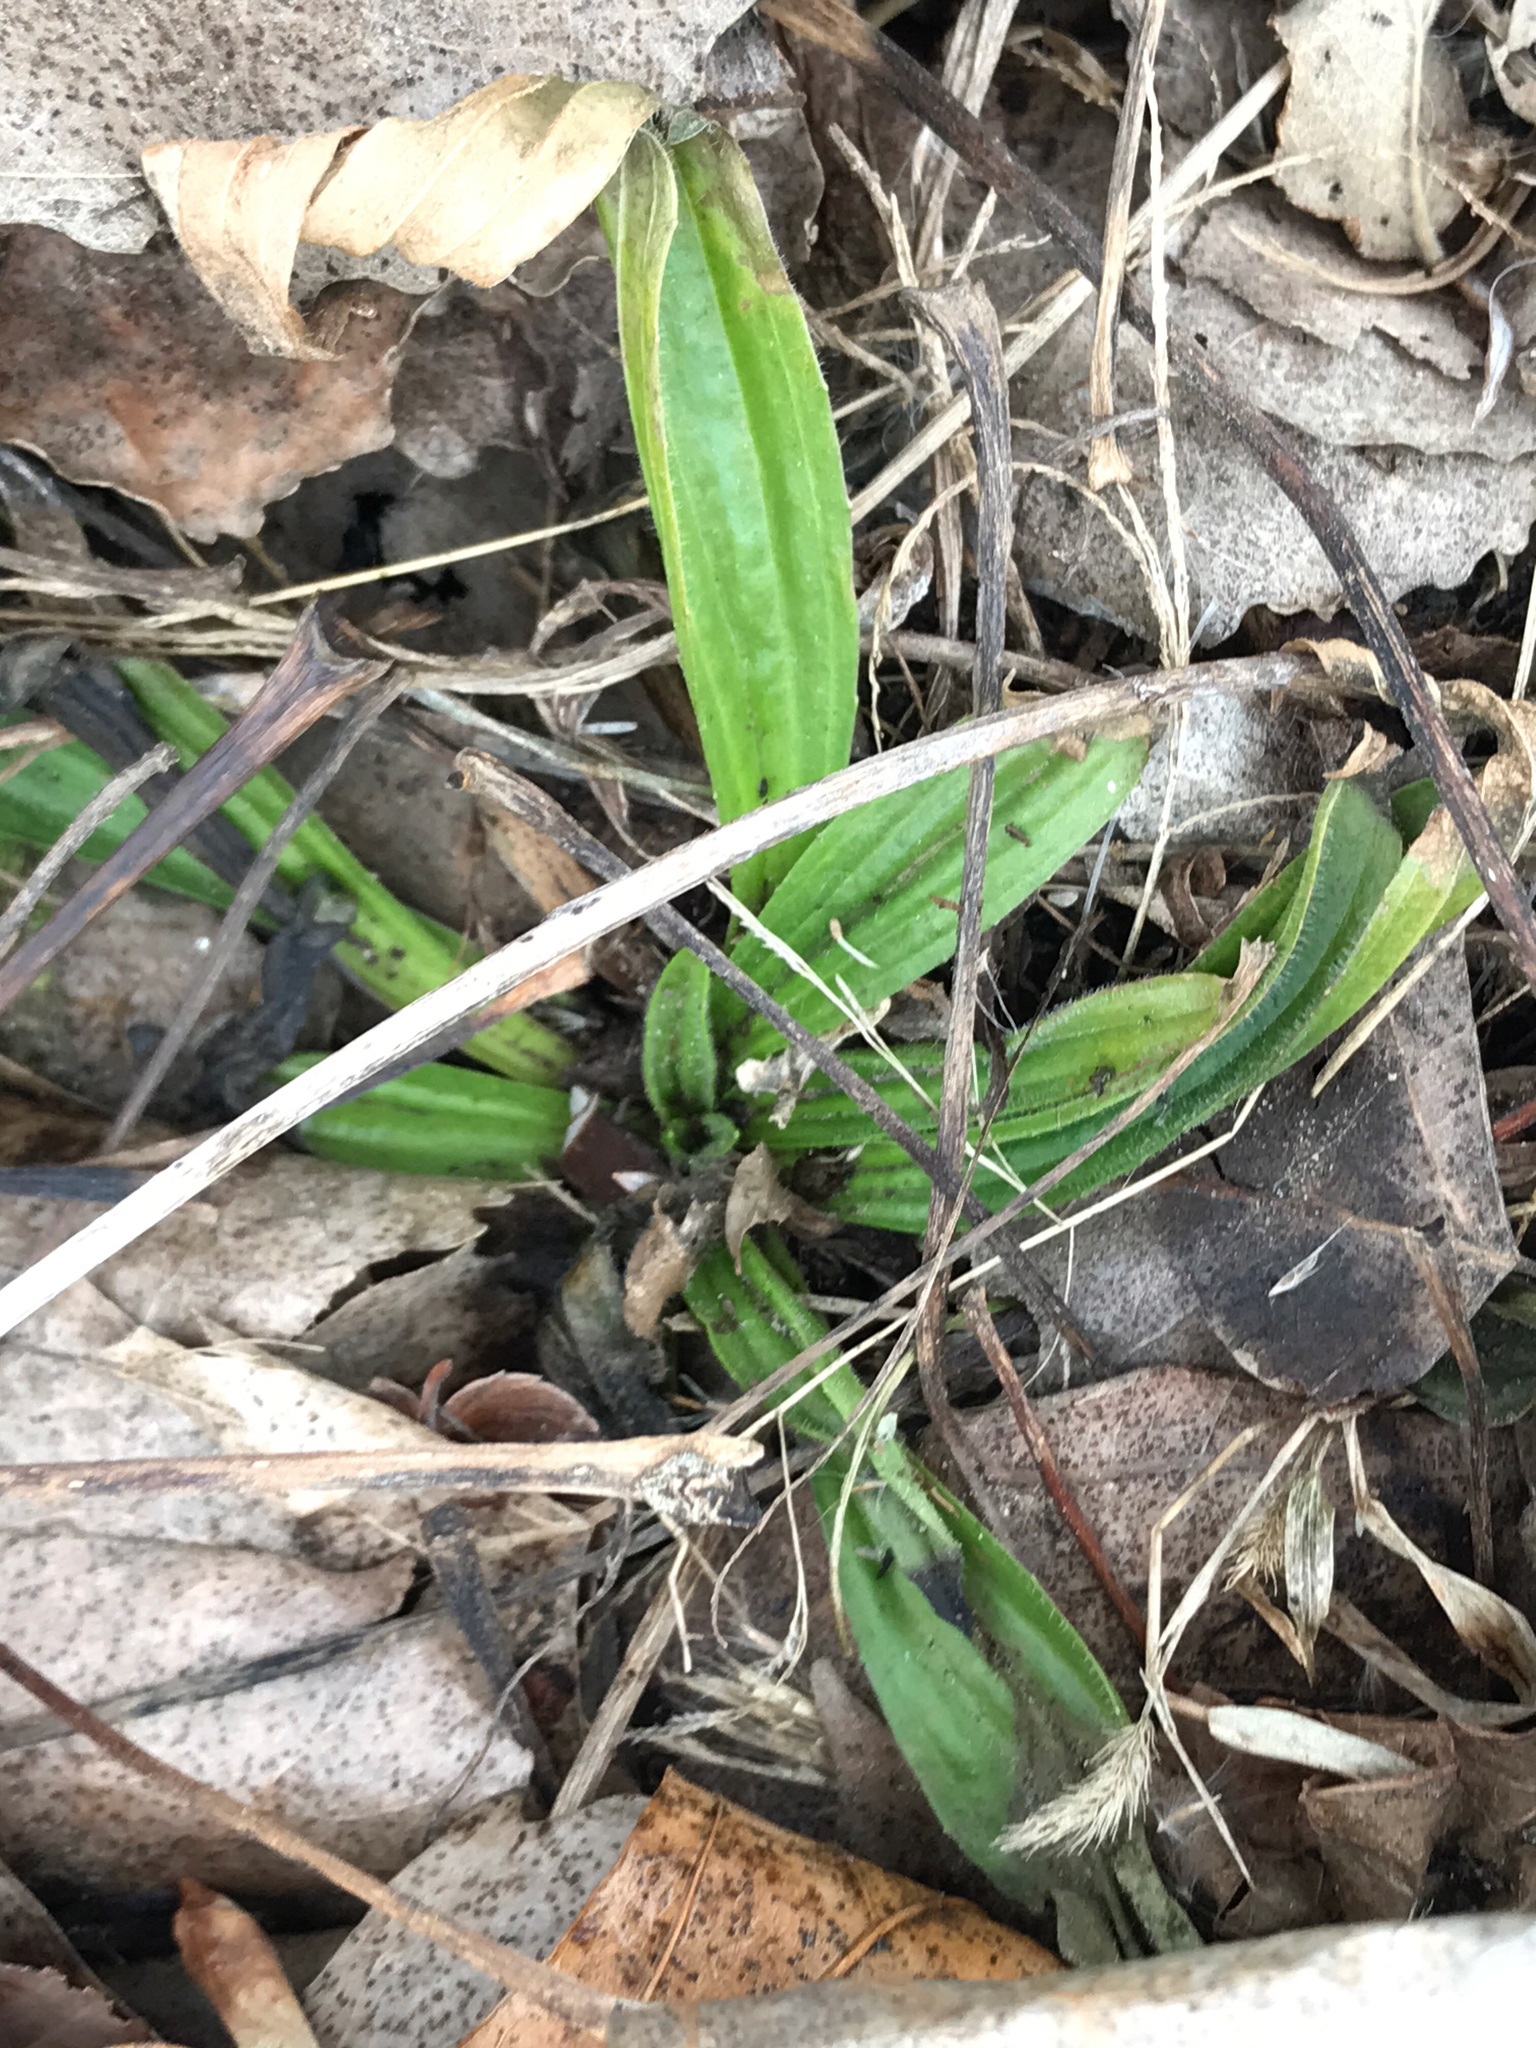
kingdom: Plantae
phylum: Tracheophyta
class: Magnoliopsida
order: Lamiales
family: Plantaginaceae
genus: Plantago
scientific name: Plantago lanceolata
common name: Ribwort plantain
